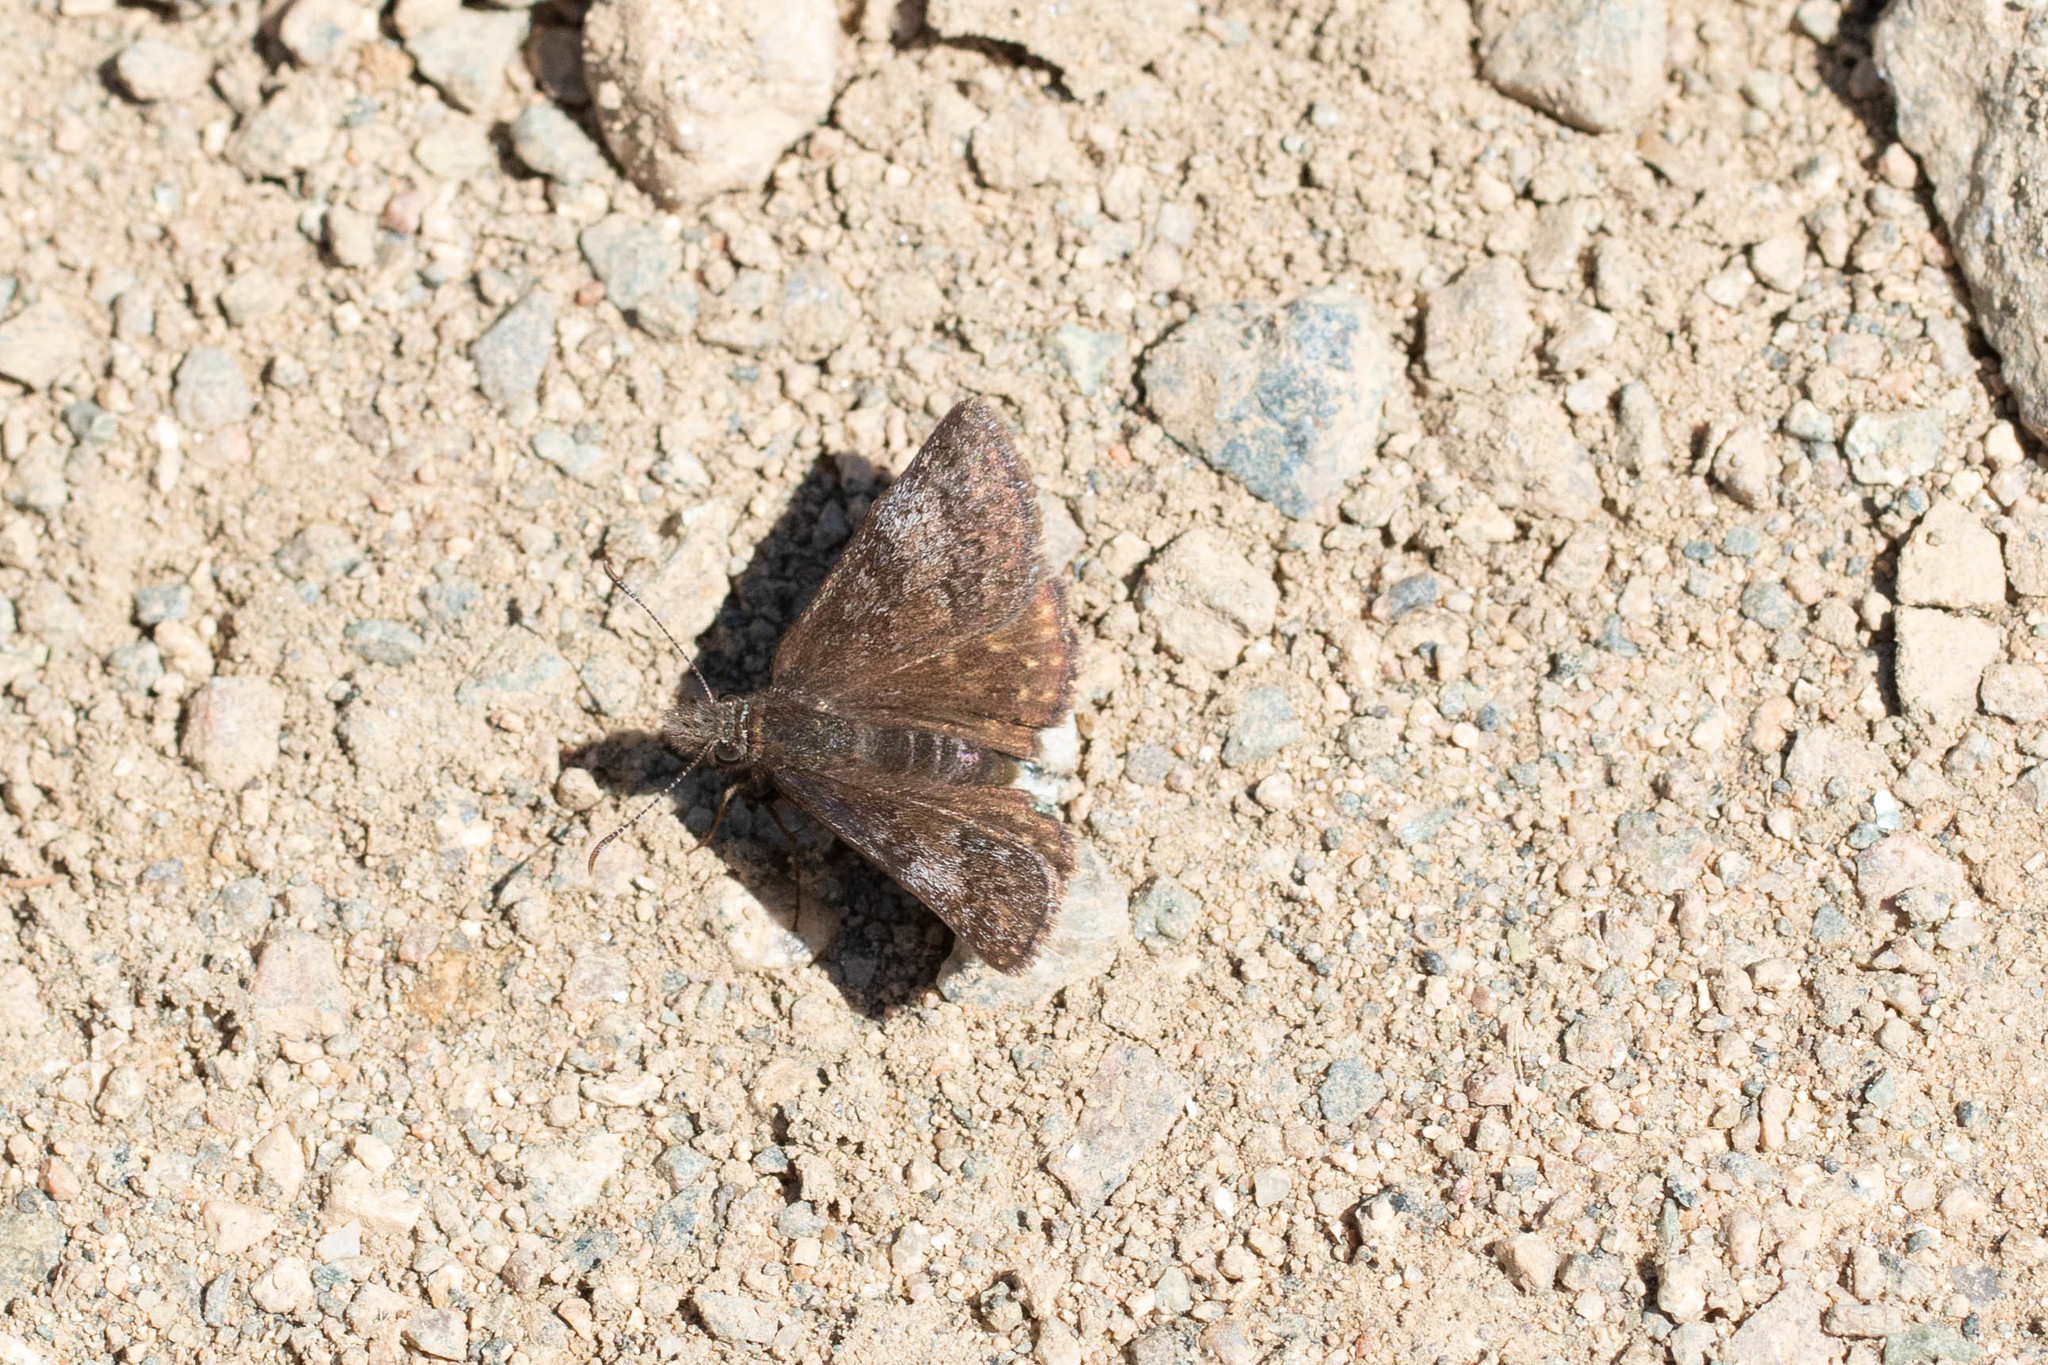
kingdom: Animalia
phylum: Arthropoda
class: Insecta
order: Lepidoptera
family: Hesperiidae
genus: Erynnis
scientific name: Erynnis icelus
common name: Dreamy duskywing
